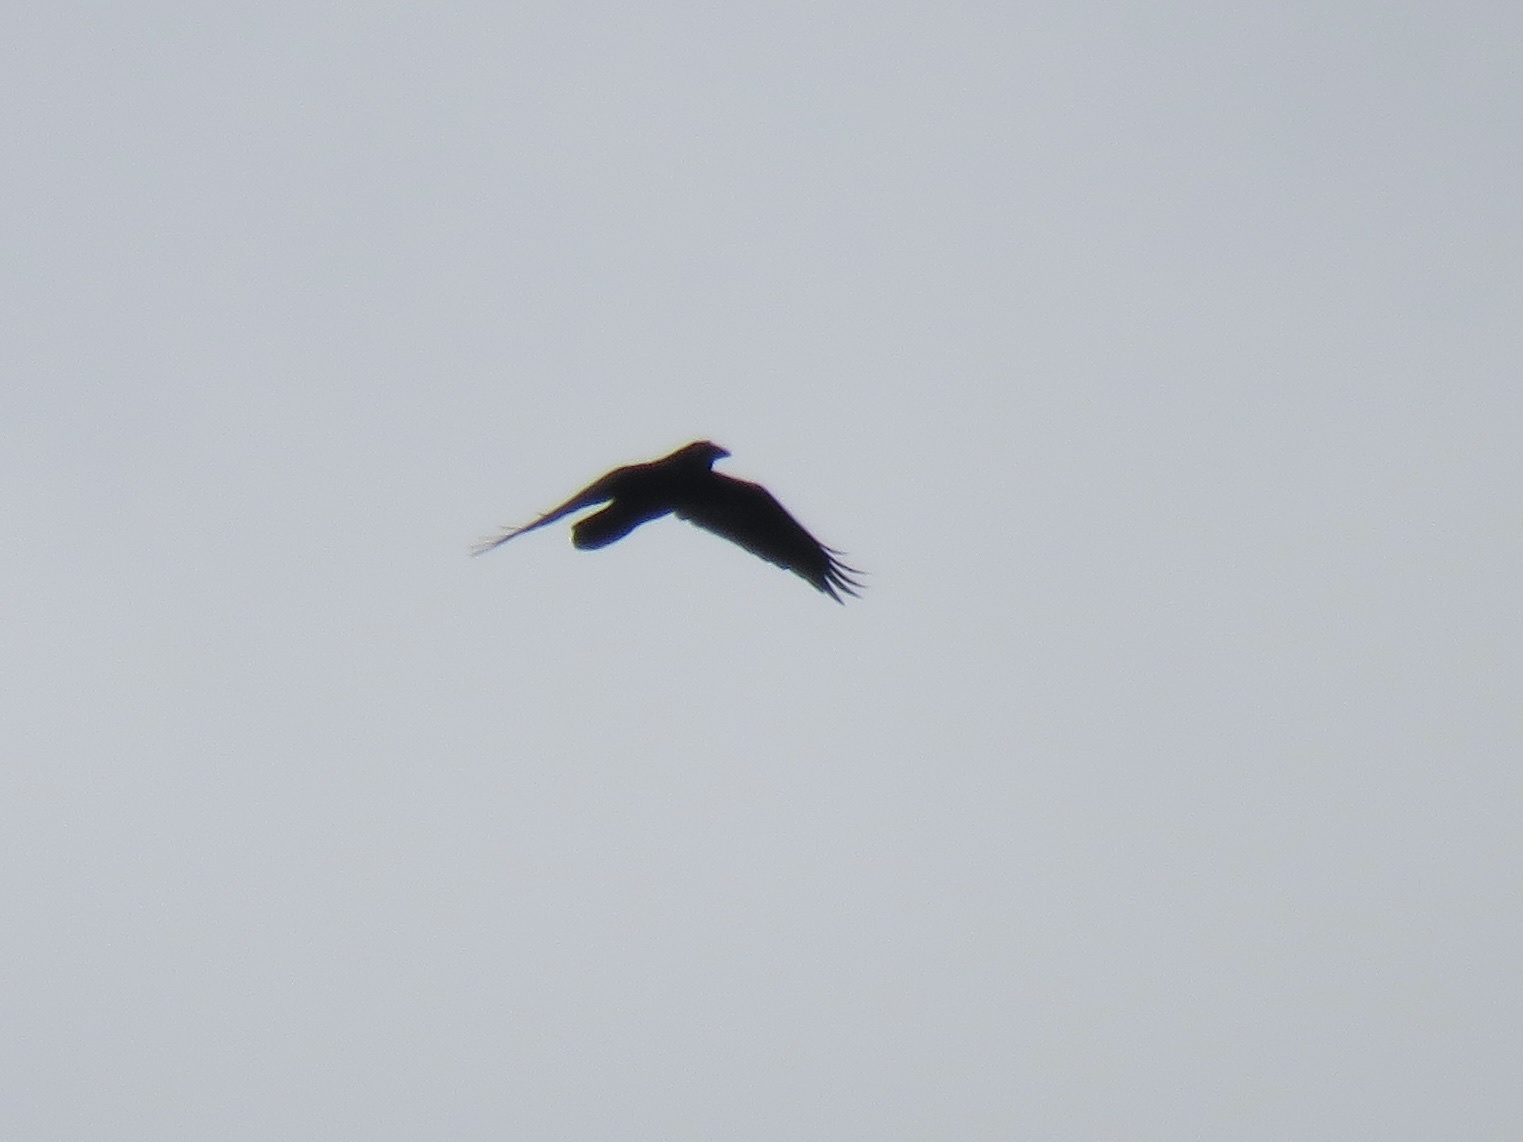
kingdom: Animalia
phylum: Chordata
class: Aves
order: Passeriformes
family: Corvidae
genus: Corvus
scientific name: Corvus corax
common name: Common raven
